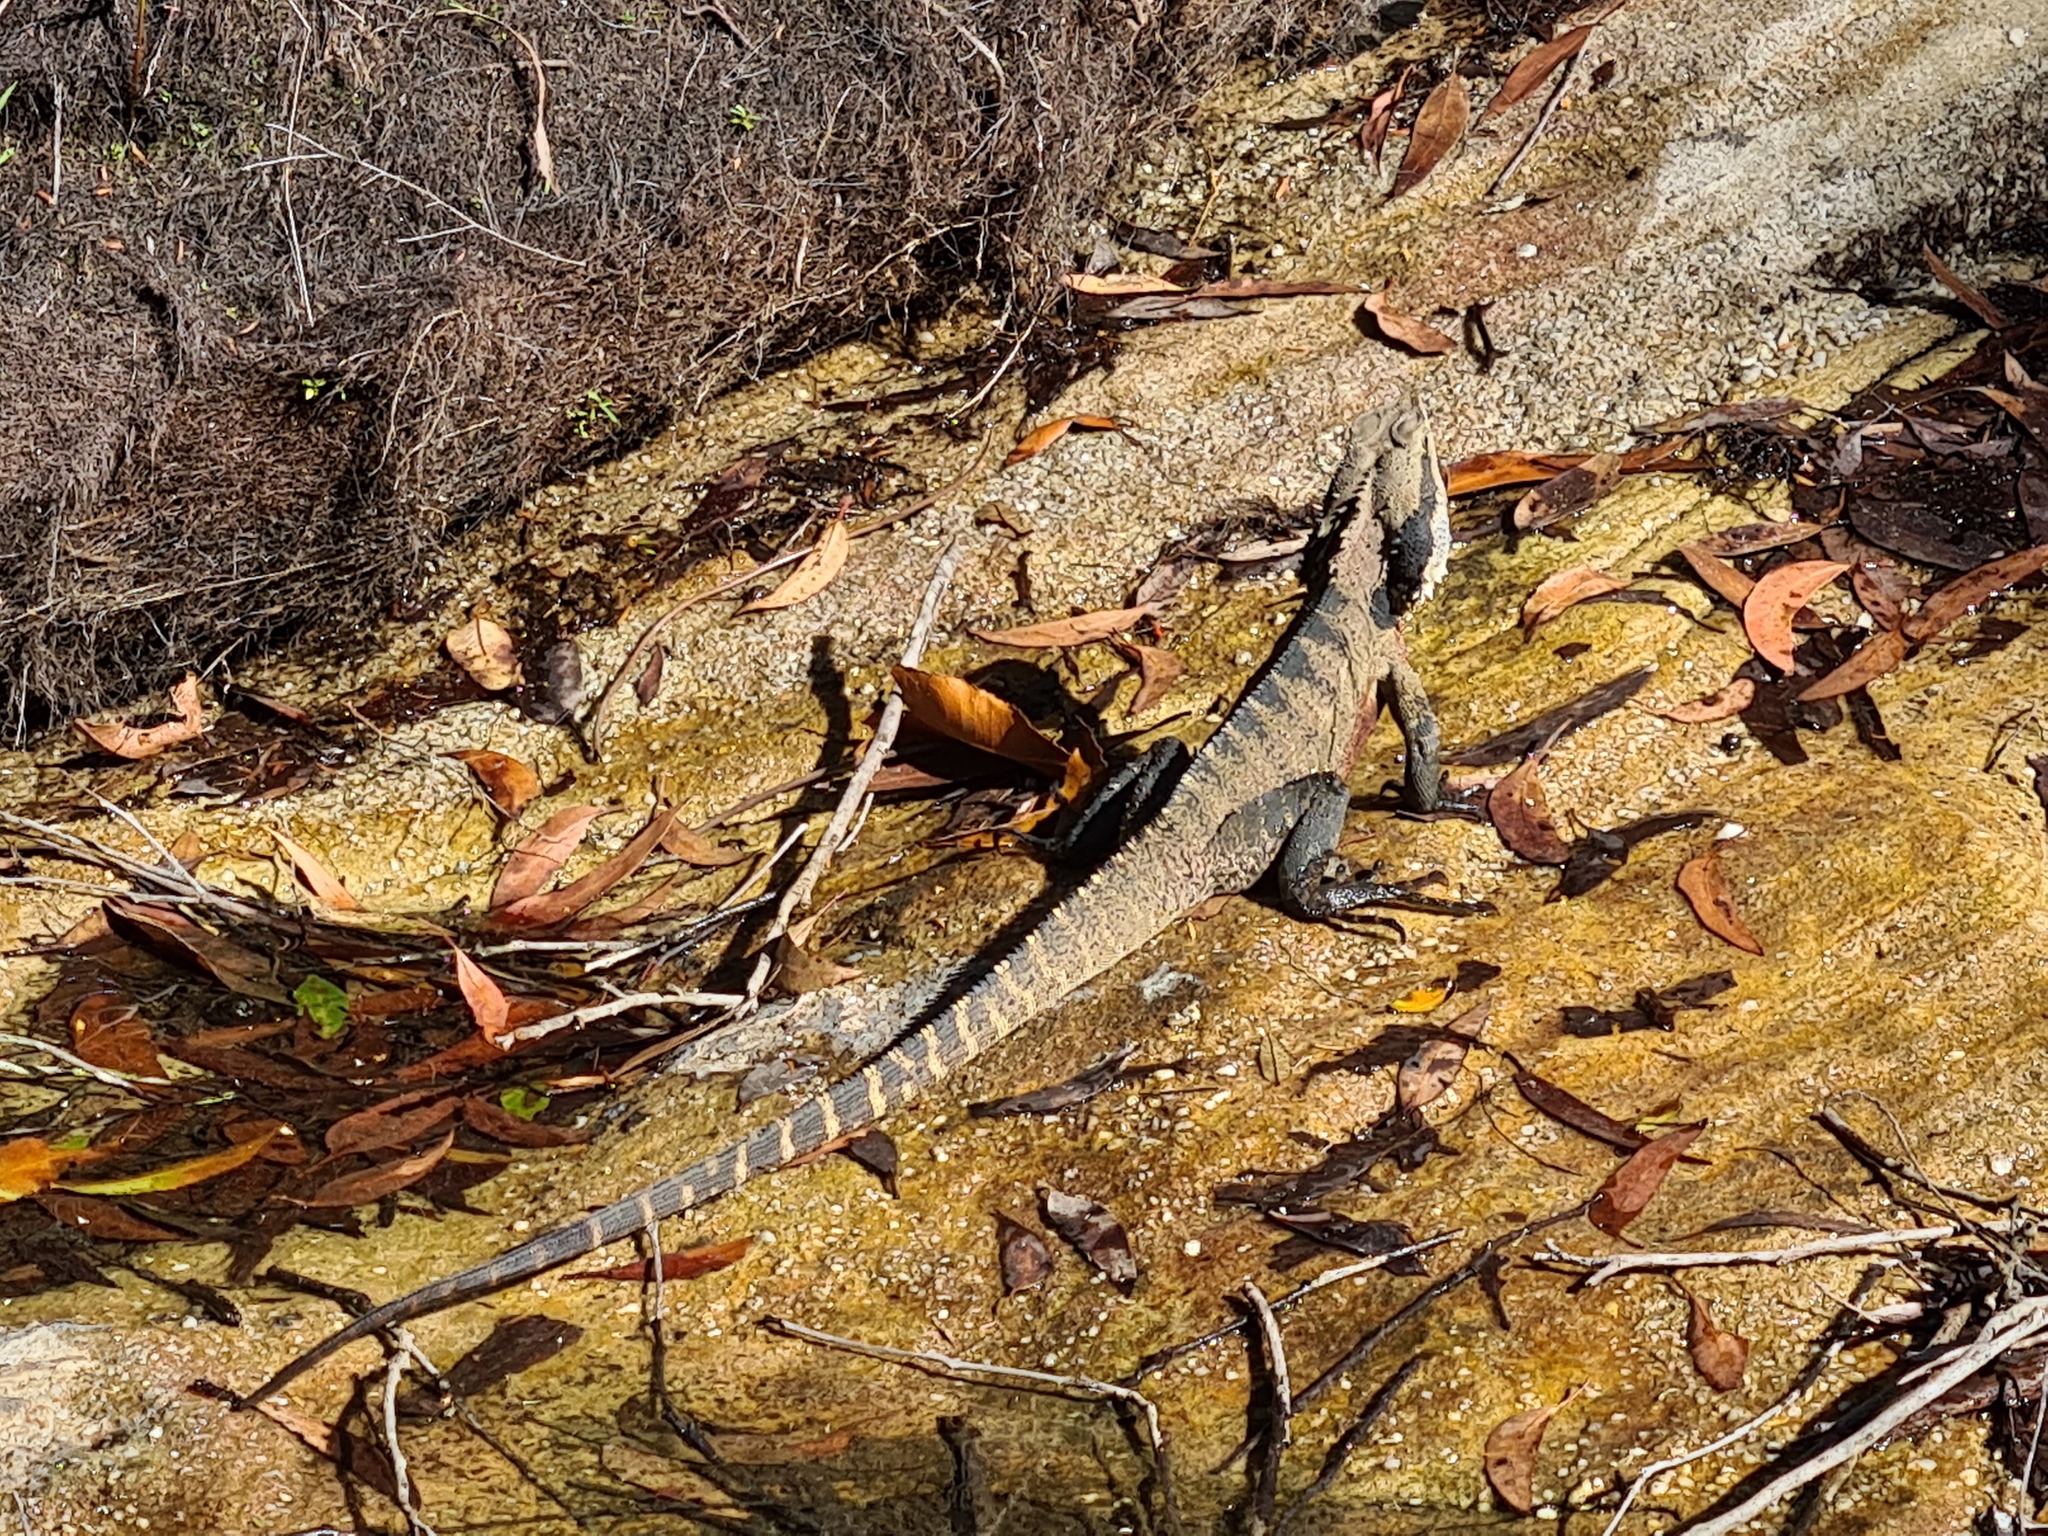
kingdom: Animalia
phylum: Chordata
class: Squamata
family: Agamidae
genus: Intellagama
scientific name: Intellagama lesueurii
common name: Eastern water dragon
